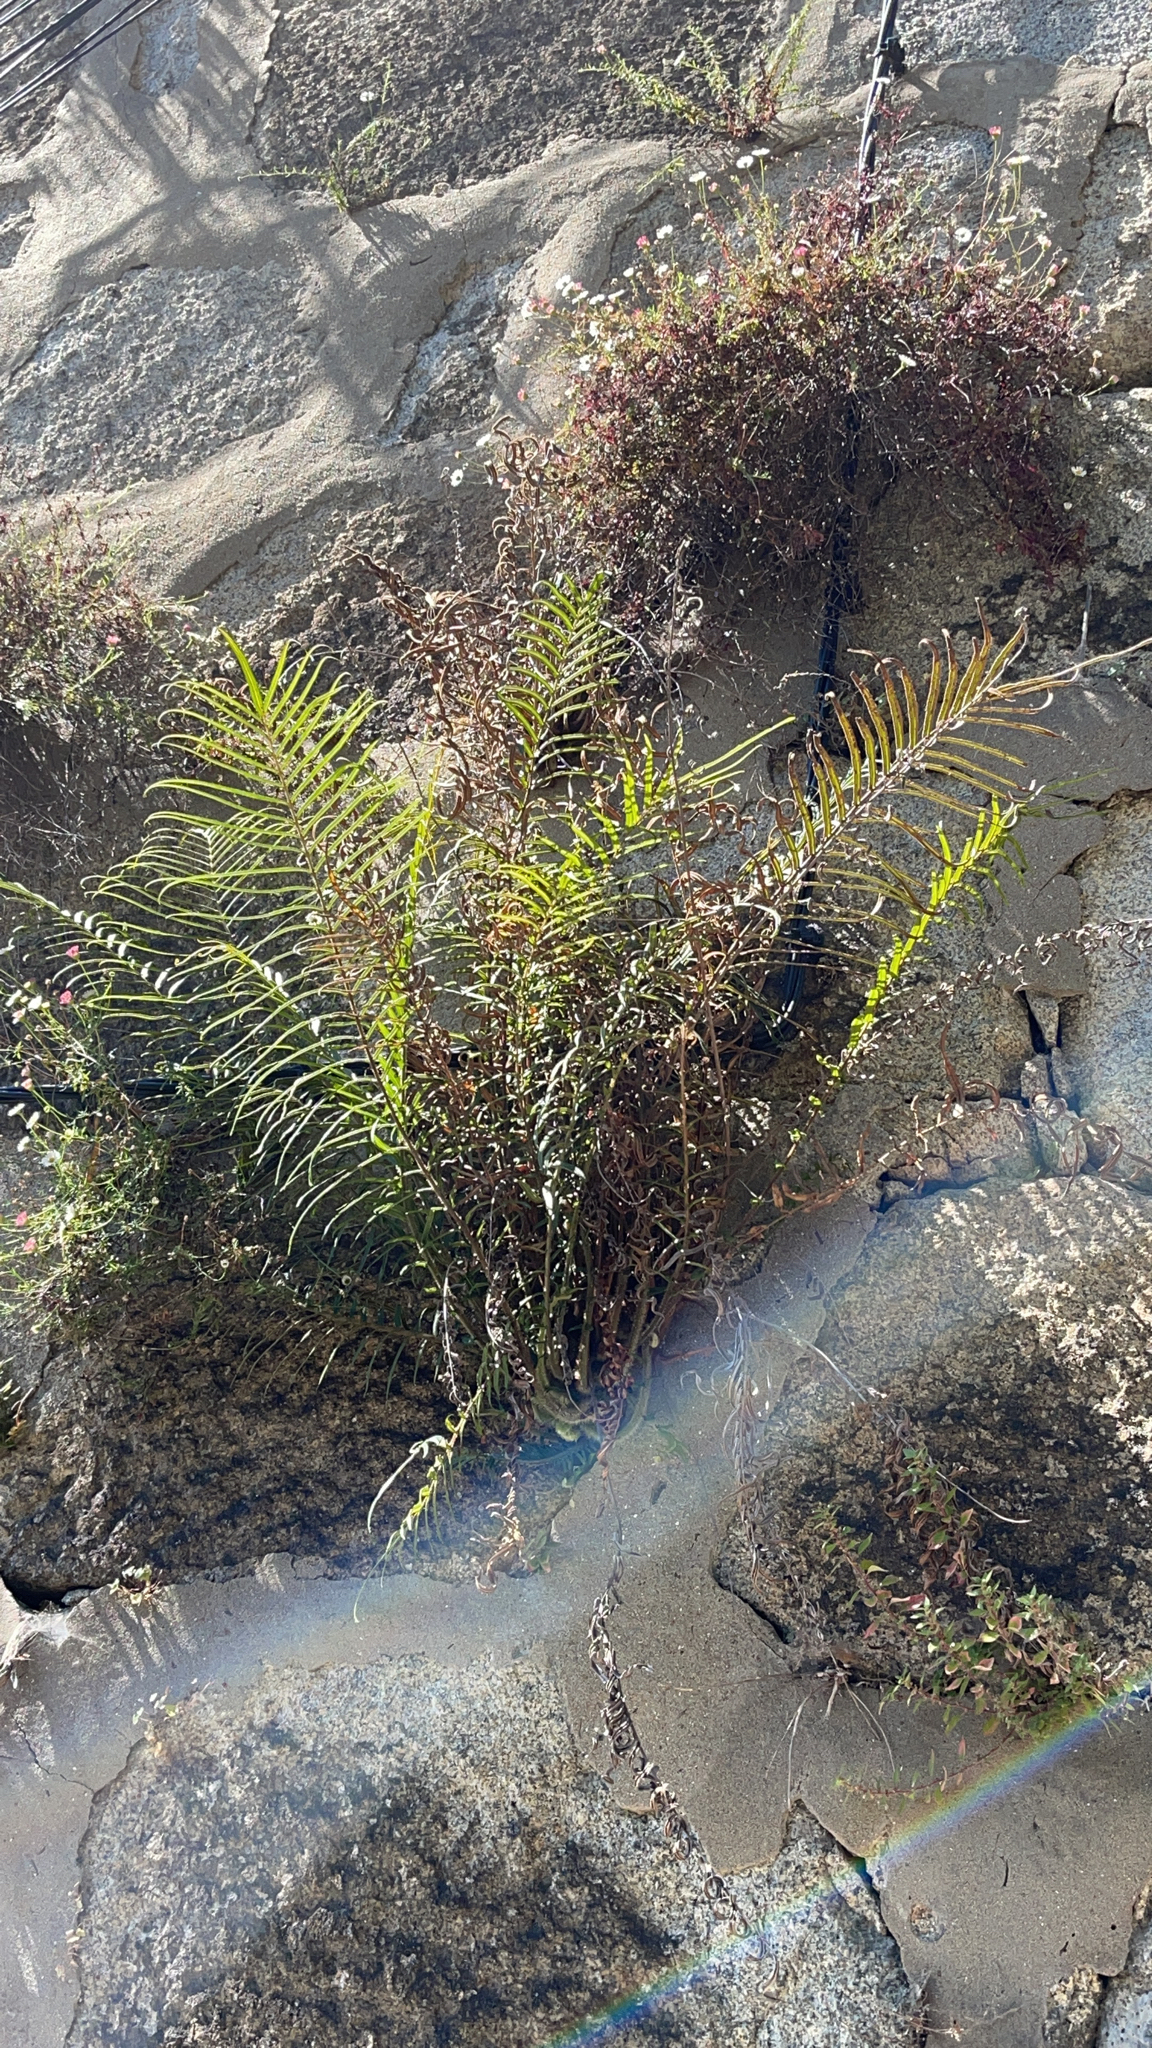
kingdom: Plantae
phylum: Tracheophyta
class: Polypodiopsida
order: Polypodiales
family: Pteridaceae
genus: Pteris
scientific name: Pteris vittata
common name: Ladder brake
